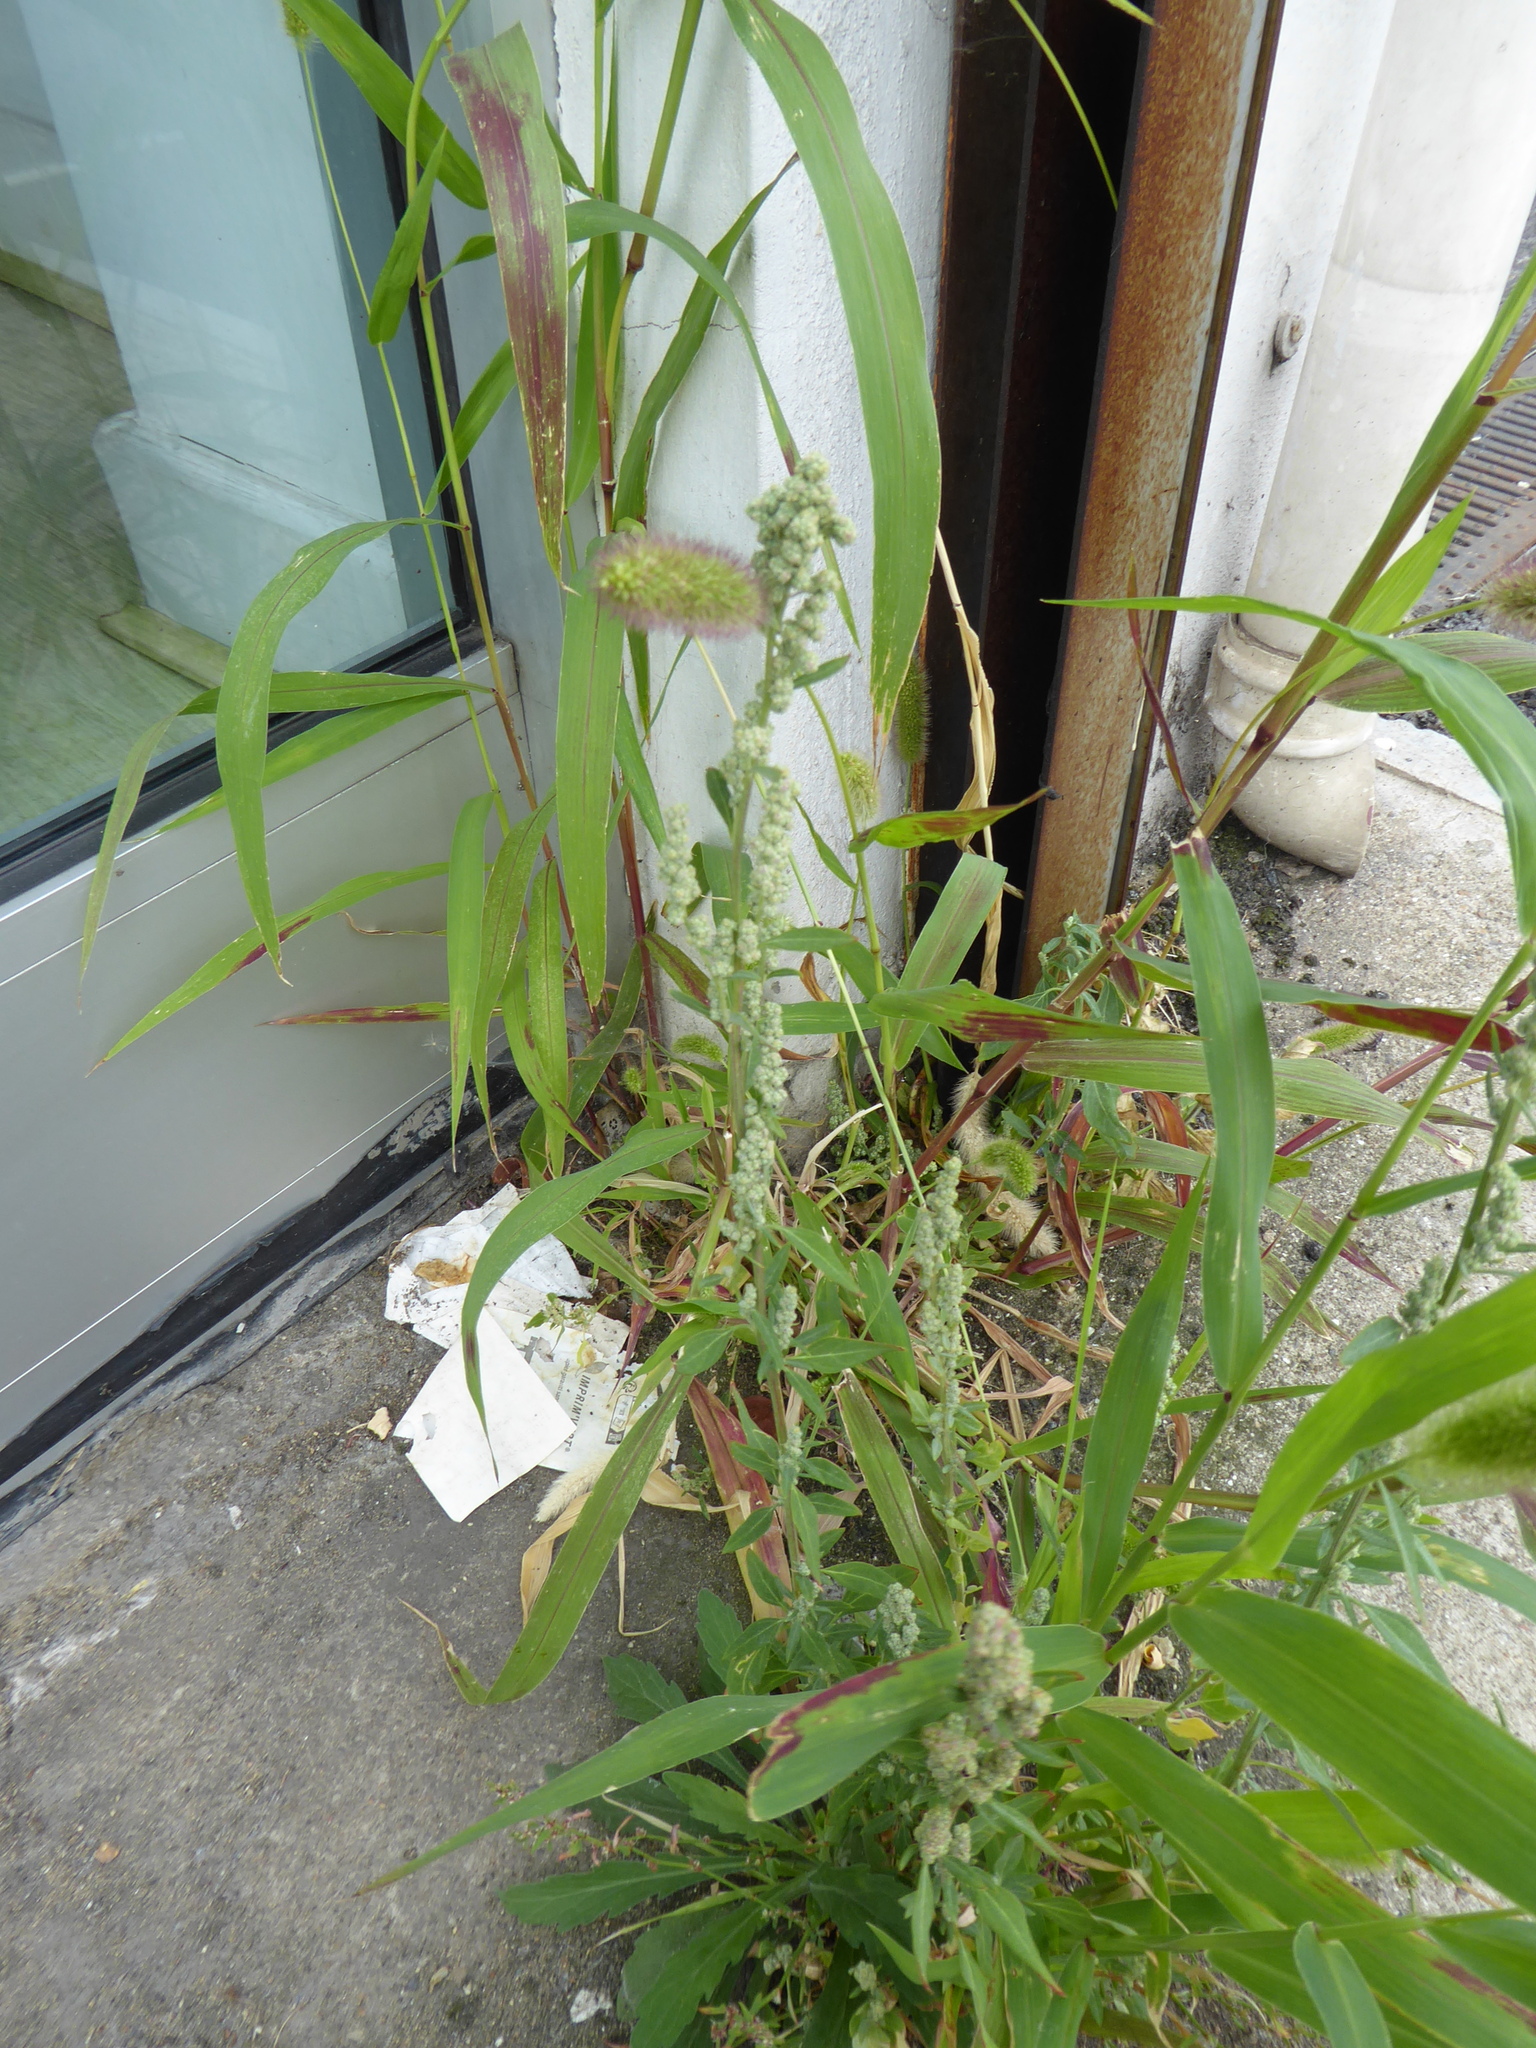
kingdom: Plantae
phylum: Tracheophyta
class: Magnoliopsida
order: Caryophyllales
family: Amaranthaceae
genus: Chenopodium
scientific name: Chenopodium album
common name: Fat-hen
